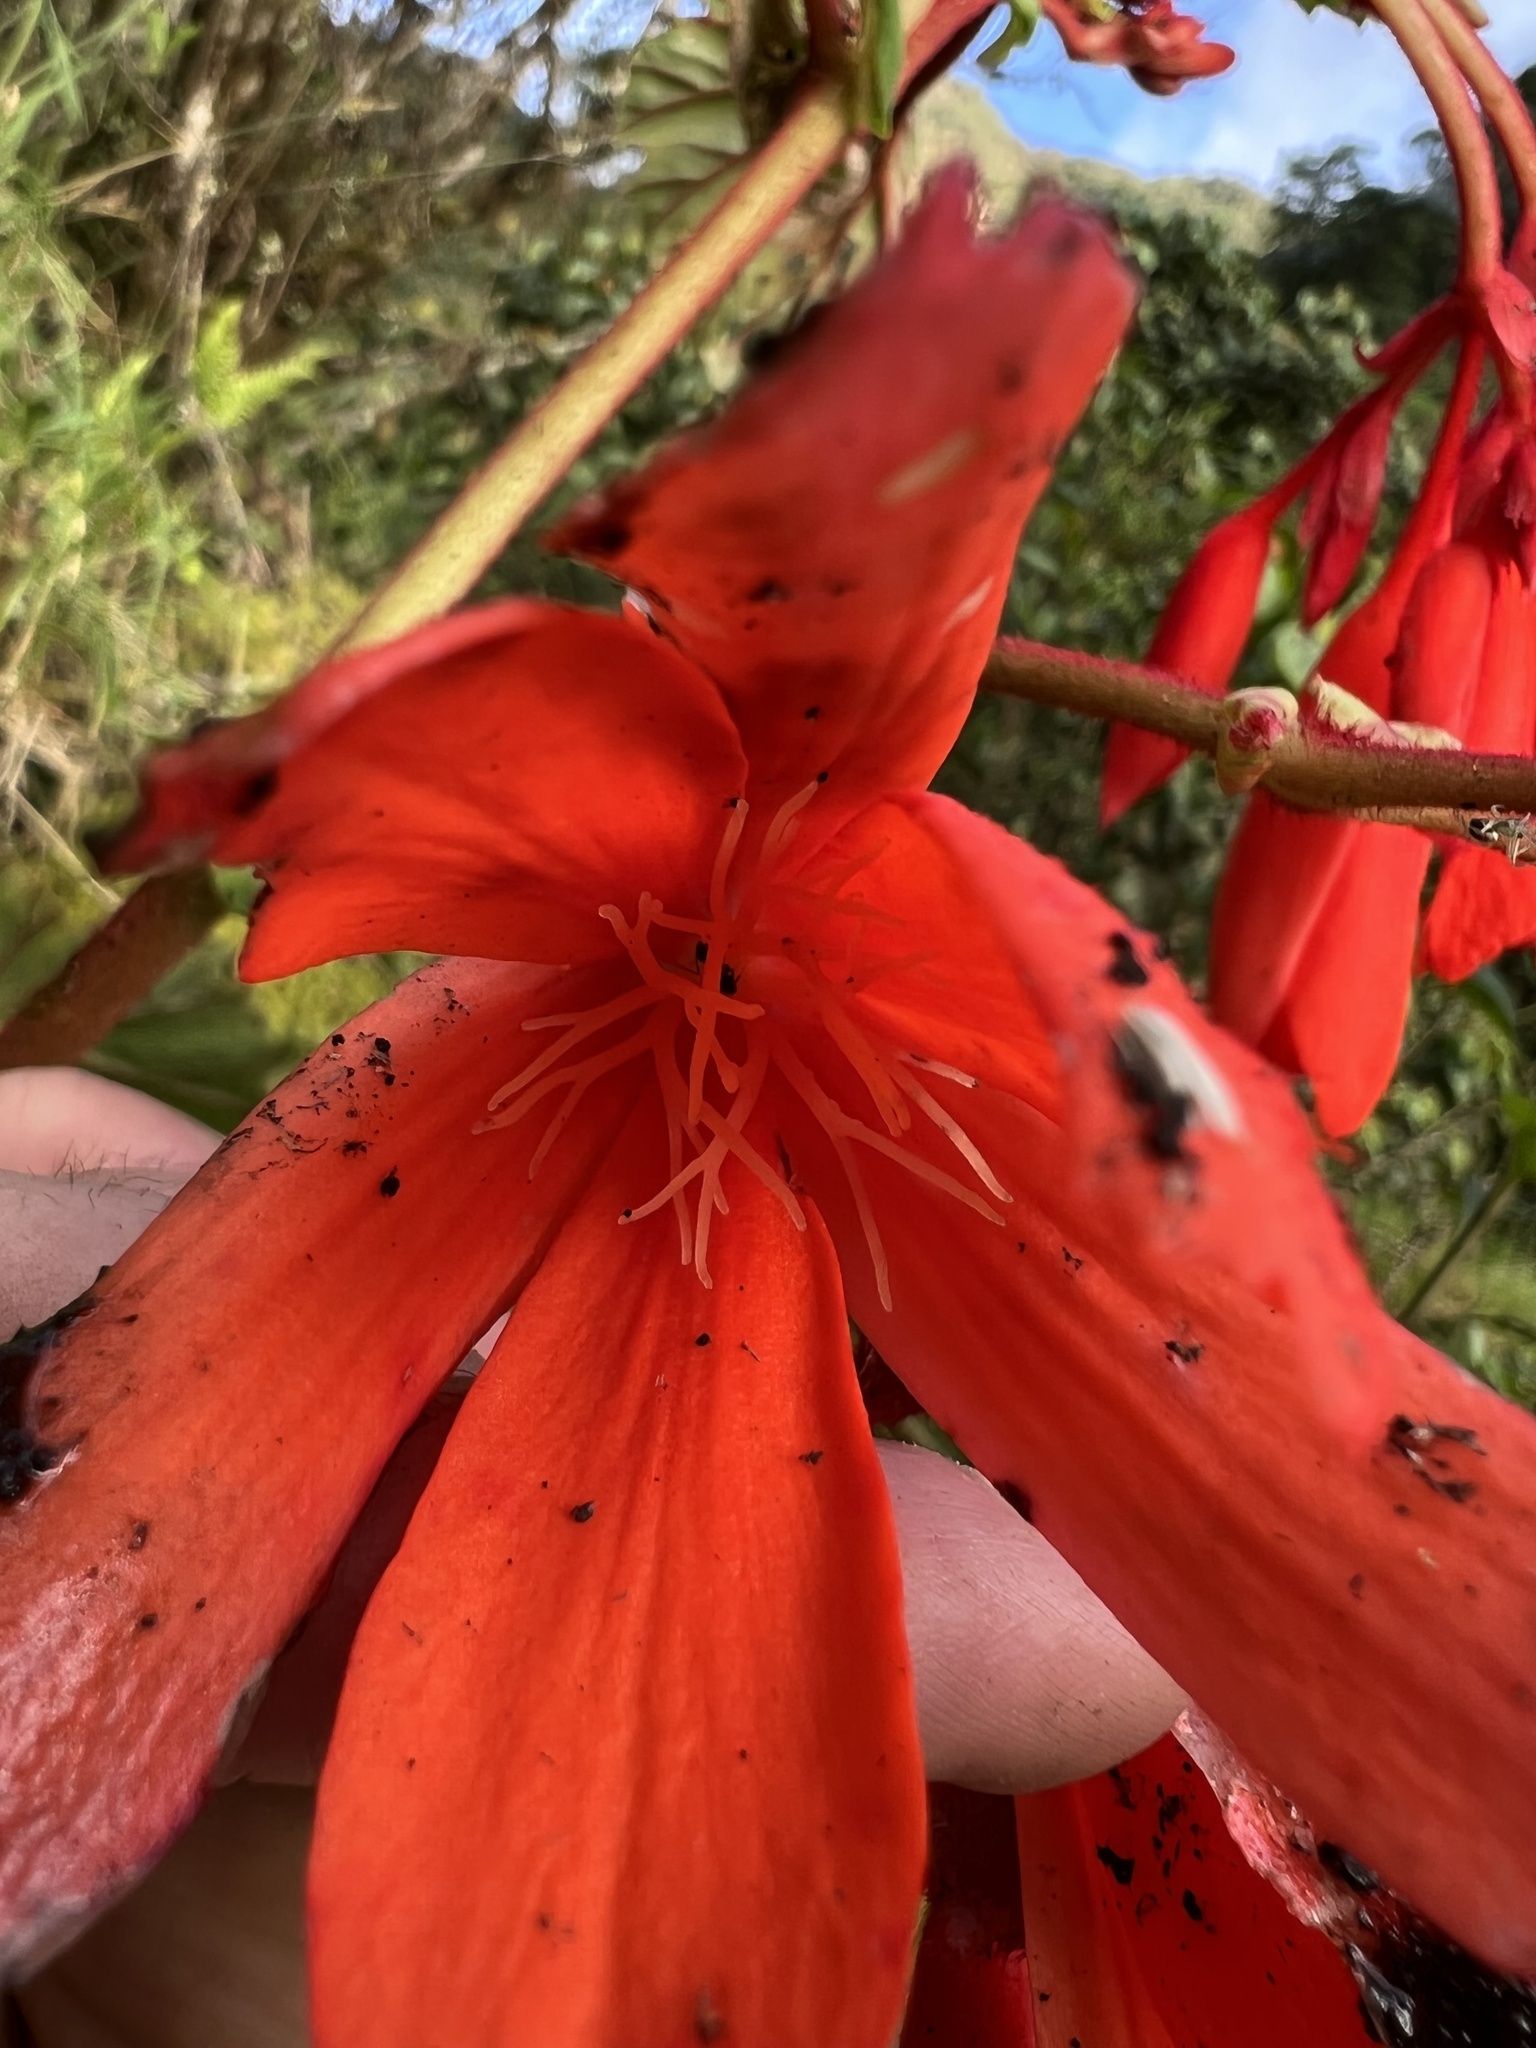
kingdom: Plantae
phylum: Tracheophyta
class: Magnoliopsida
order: Cucurbitales
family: Begoniaceae
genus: Begonia
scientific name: Begonia ferruginea
